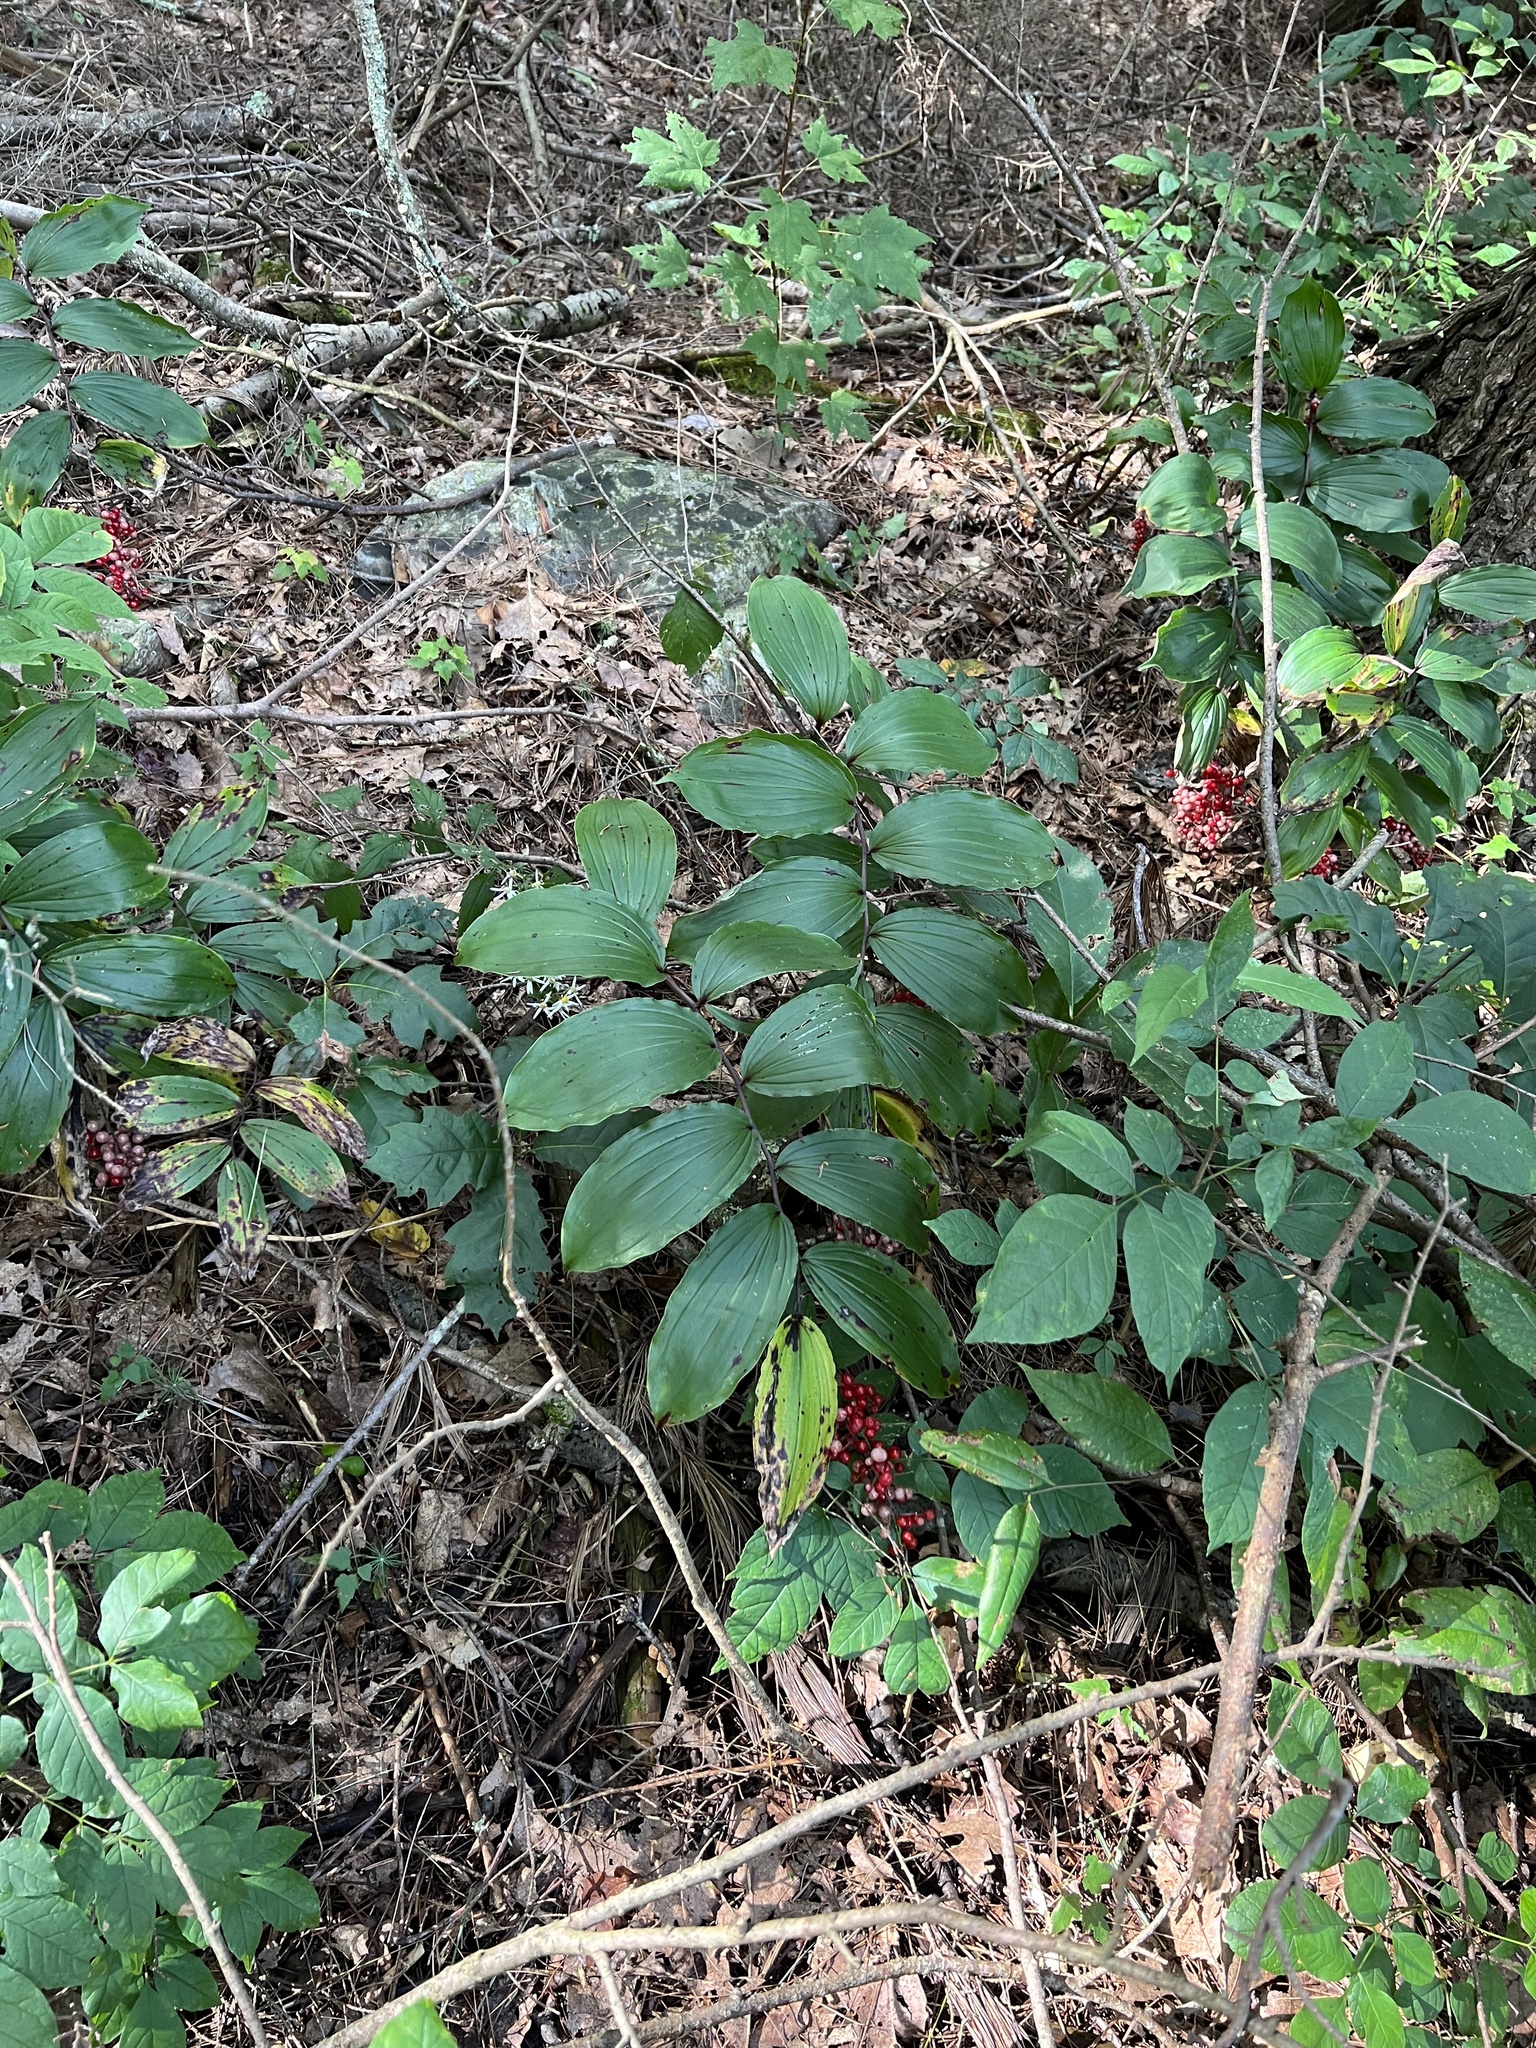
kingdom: Plantae
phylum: Tracheophyta
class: Liliopsida
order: Asparagales
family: Asparagaceae
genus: Maianthemum
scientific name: Maianthemum racemosum
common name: False spikenard
